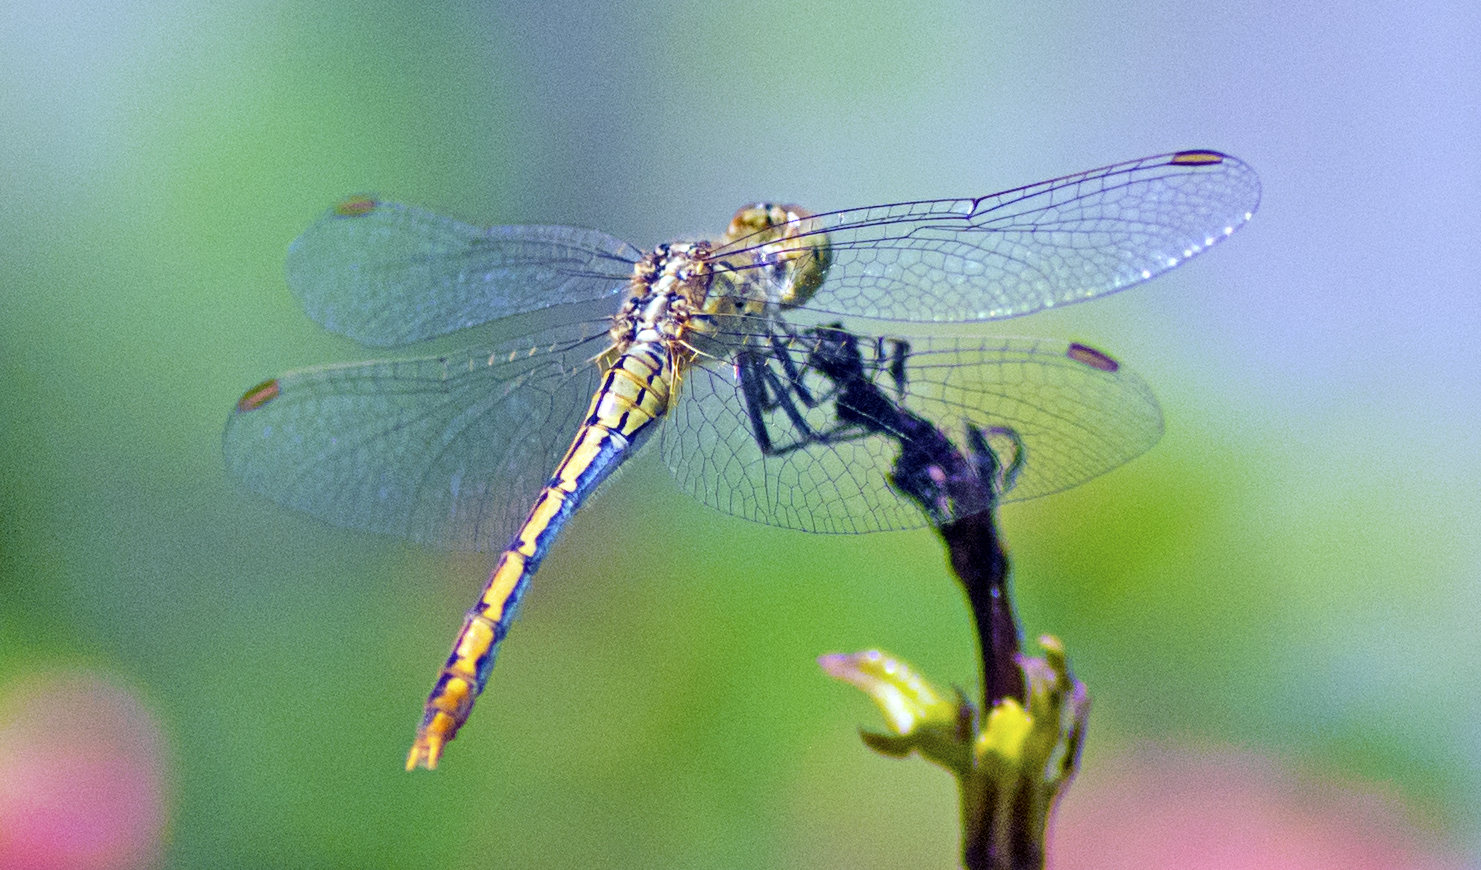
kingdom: Animalia
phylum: Arthropoda
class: Insecta
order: Odonata
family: Libellulidae
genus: Diplacodes
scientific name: Diplacodes bipunctata
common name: Red percher dragonfly
